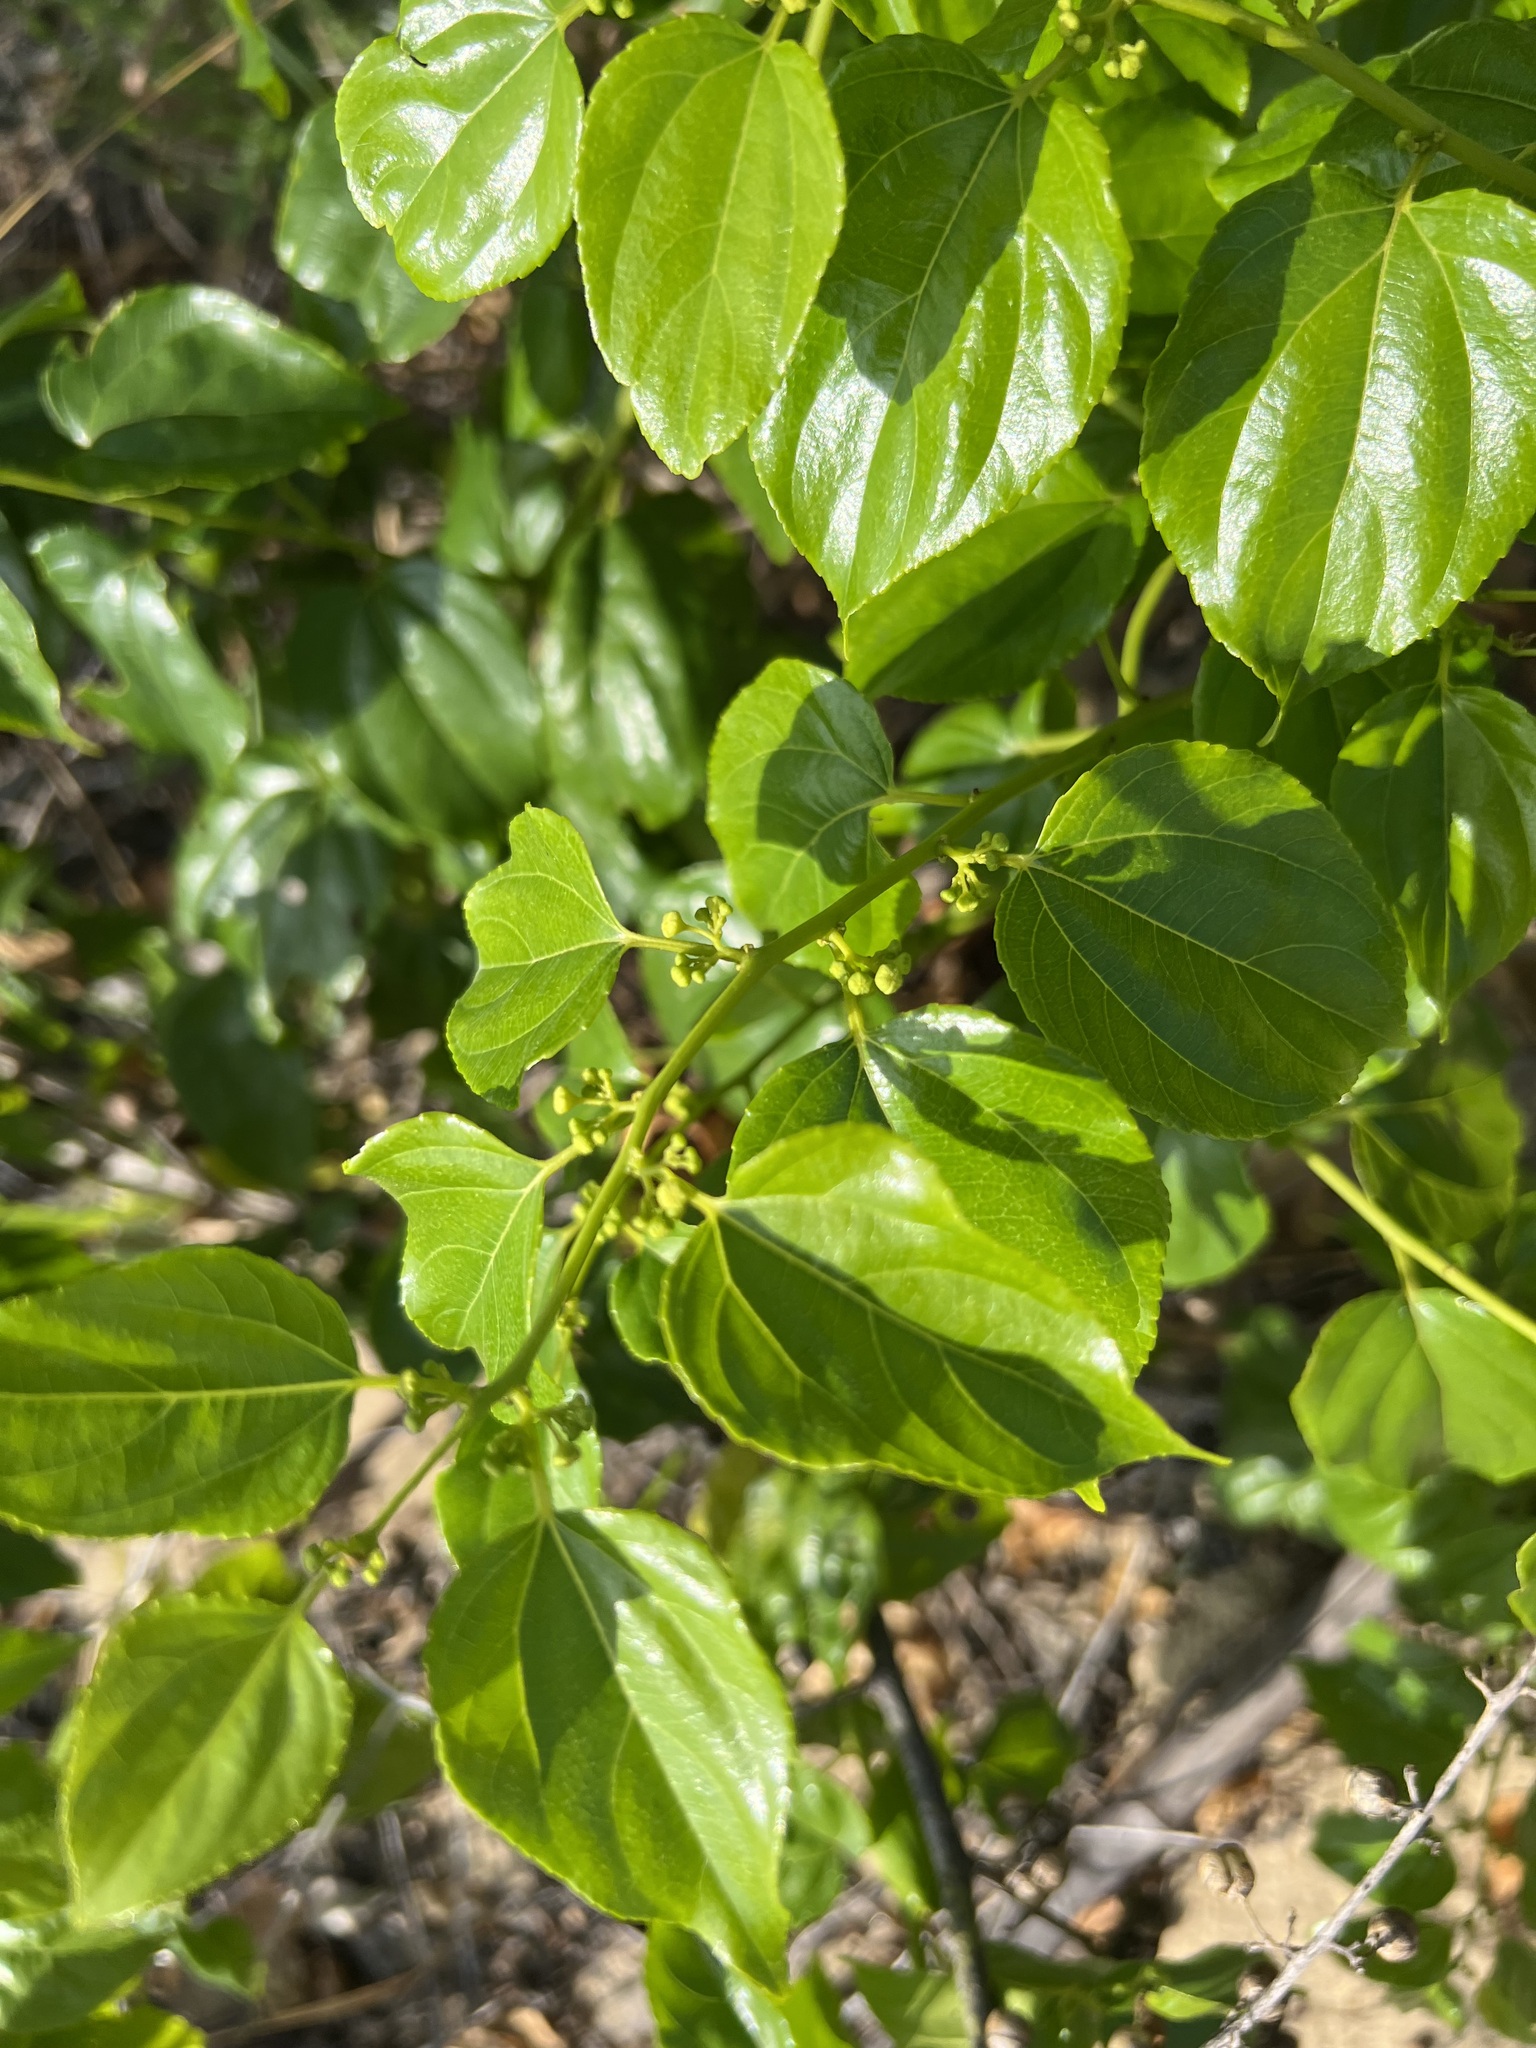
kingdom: Plantae
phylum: Tracheophyta
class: Magnoliopsida
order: Rosales
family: Rhamnaceae
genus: Colubrina
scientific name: Colubrina asiatica
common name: Asian nakedwood
